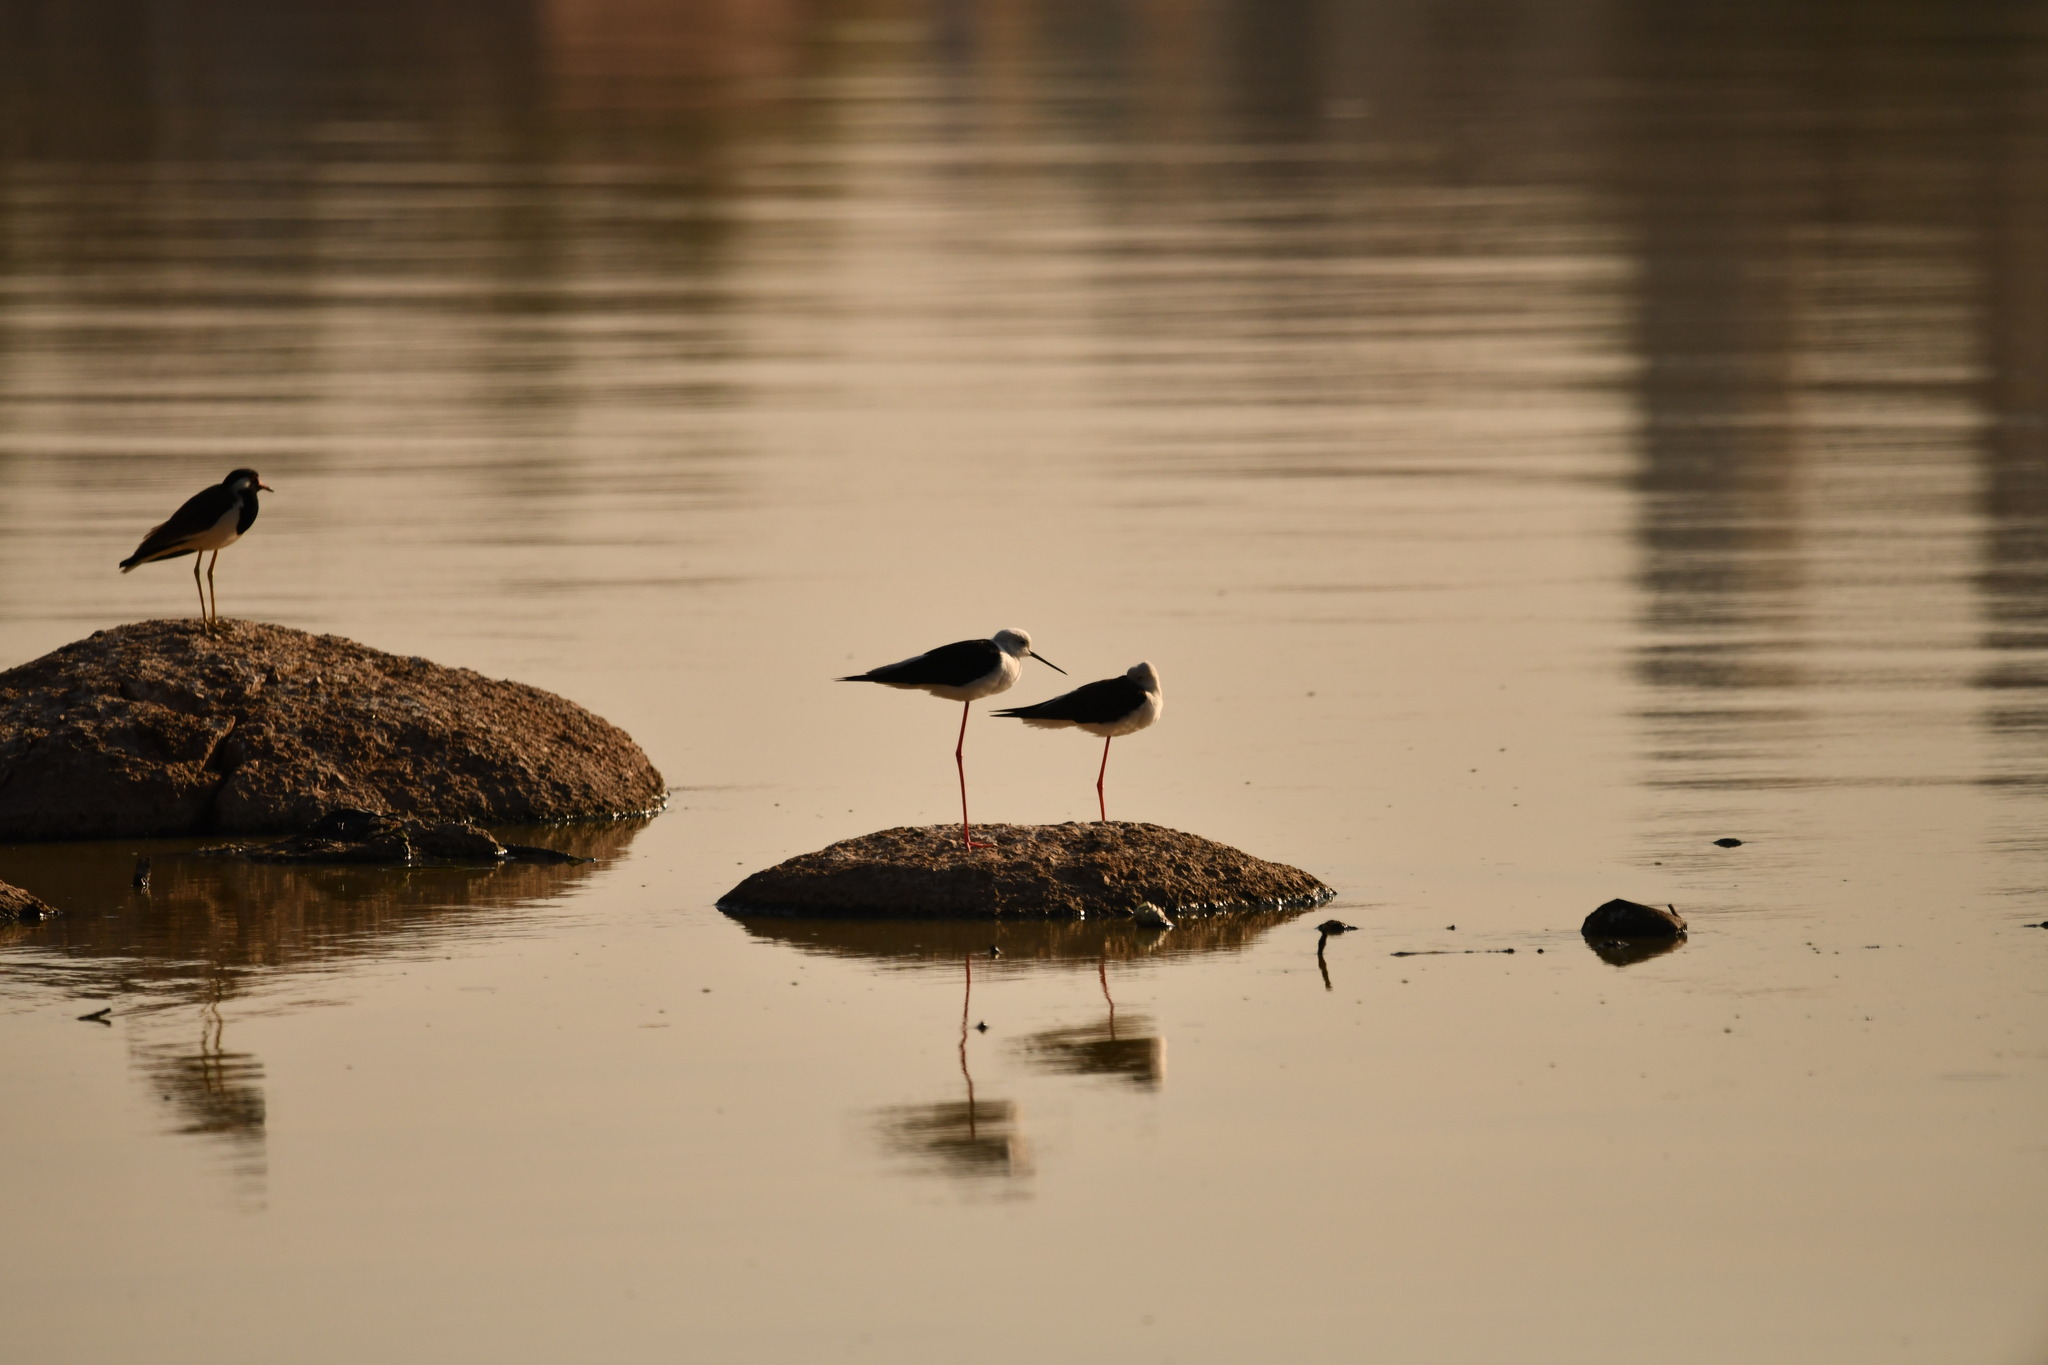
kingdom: Animalia
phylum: Chordata
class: Aves
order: Charadriiformes
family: Recurvirostridae
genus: Himantopus
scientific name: Himantopus himantopus
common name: Black-winged stilt
